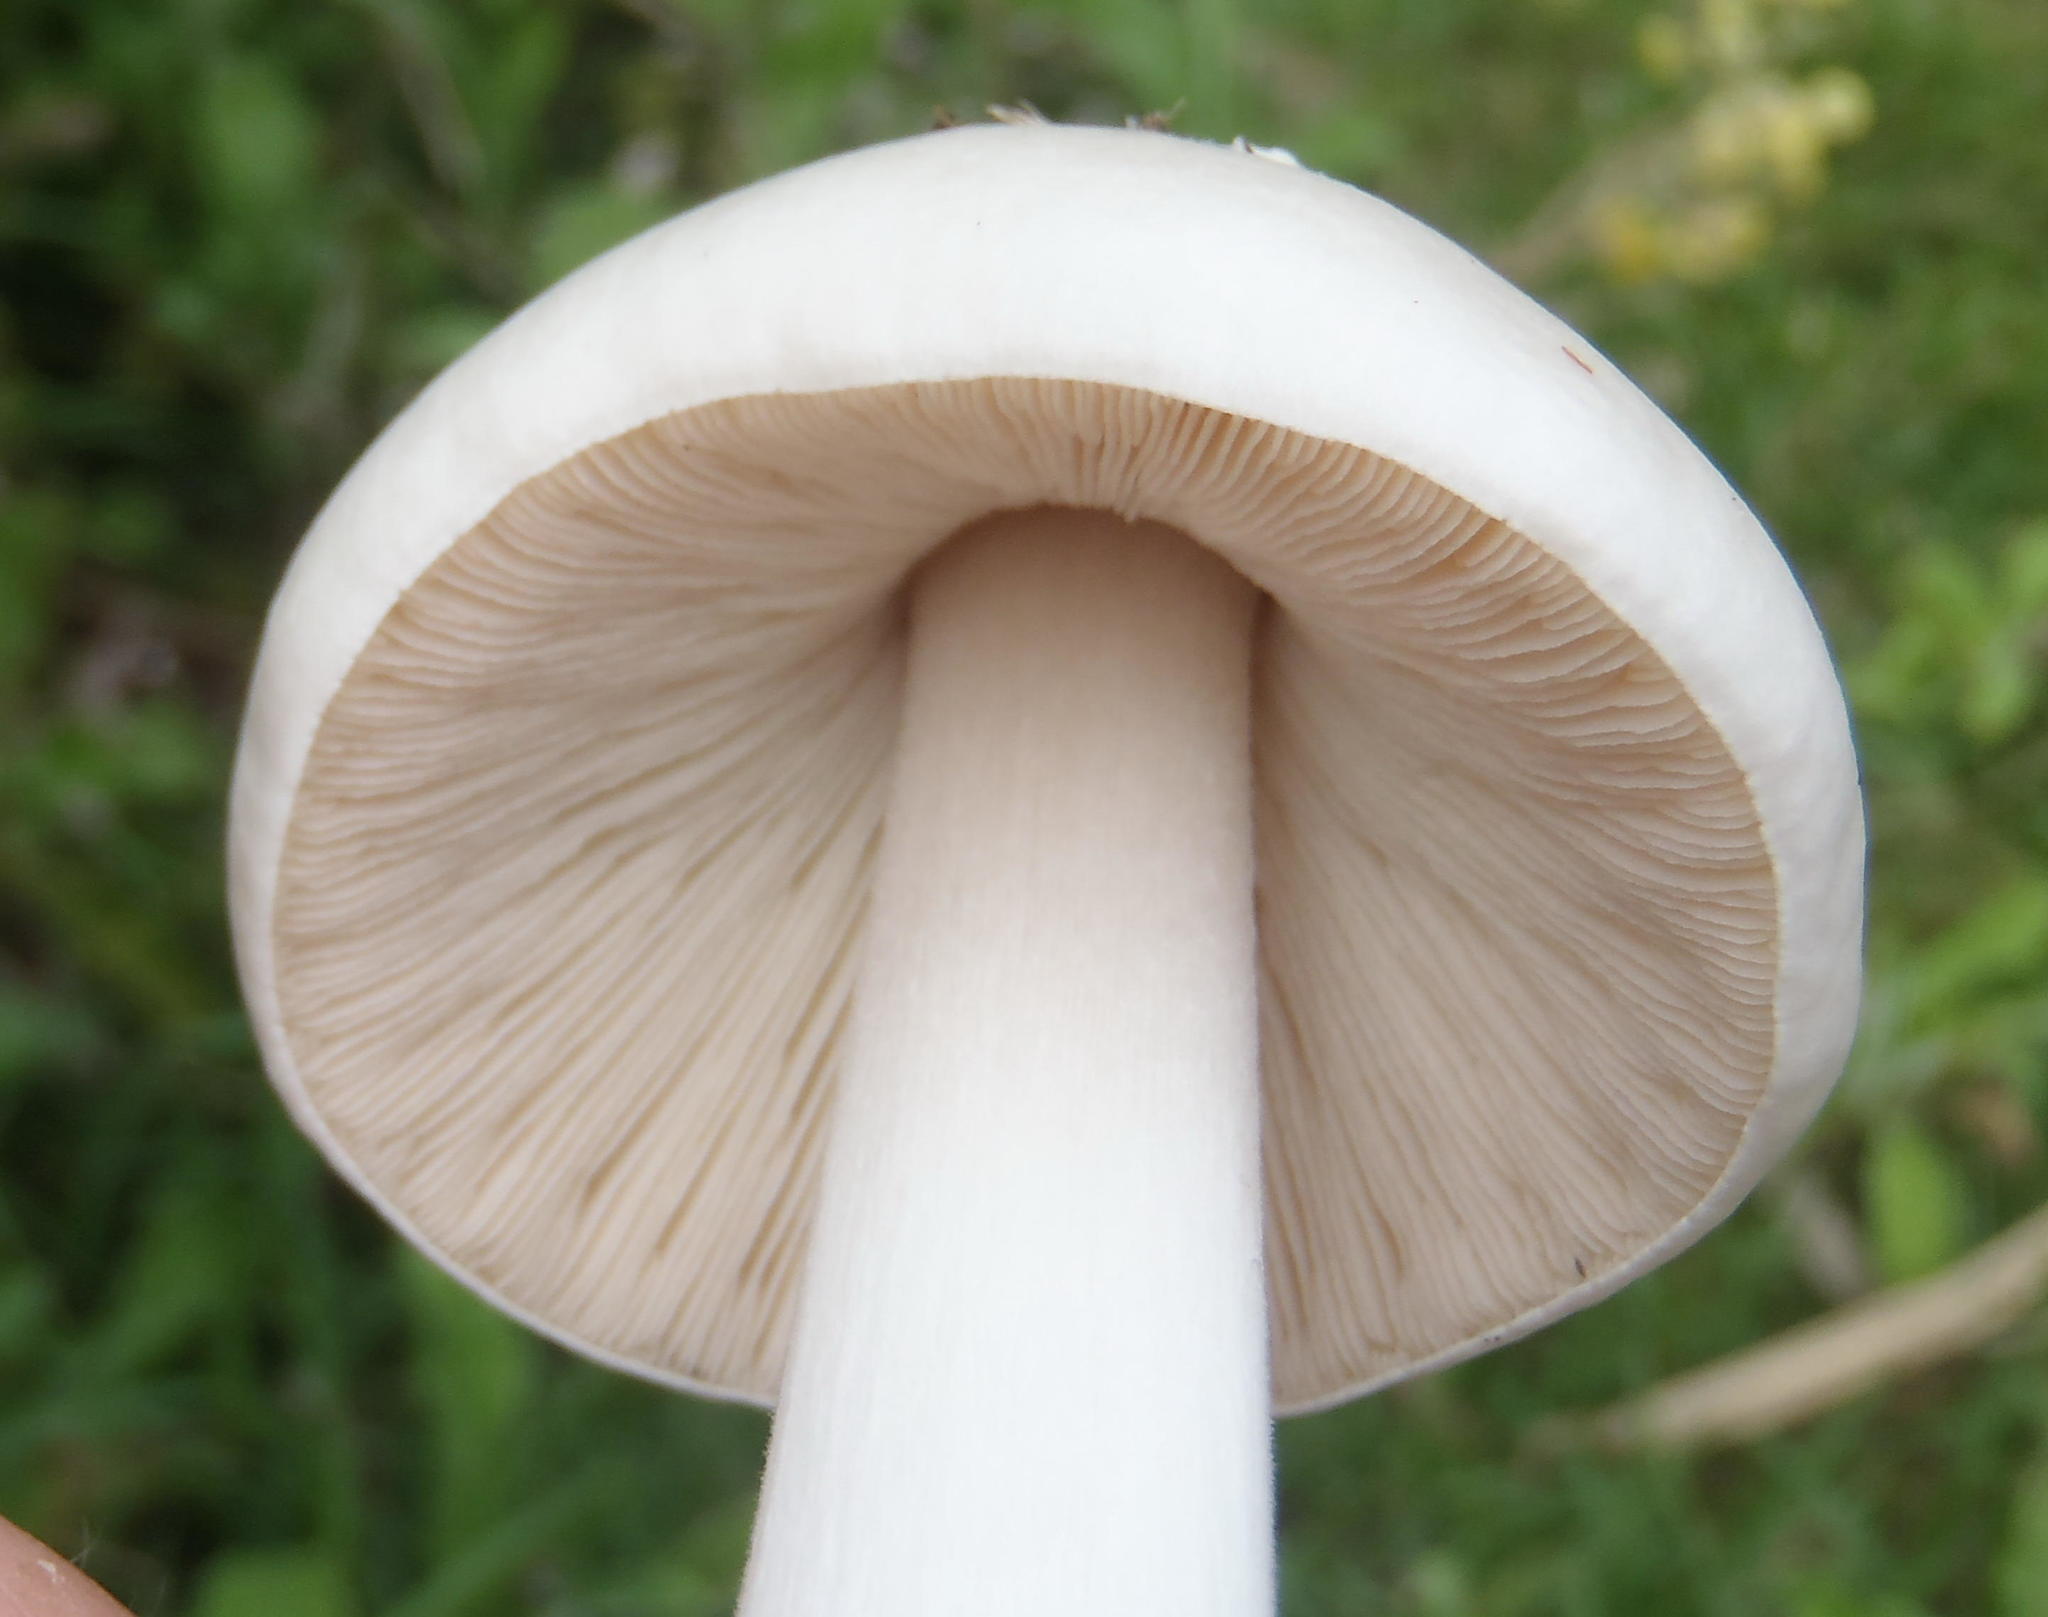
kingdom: Fungi
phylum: Basidiomycota
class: Agaricomycetes
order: Agaricales
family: Pluteaceae
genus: Volvopluteus
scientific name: Volvopluteus gloiocephalus
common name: Stubble rosegill
